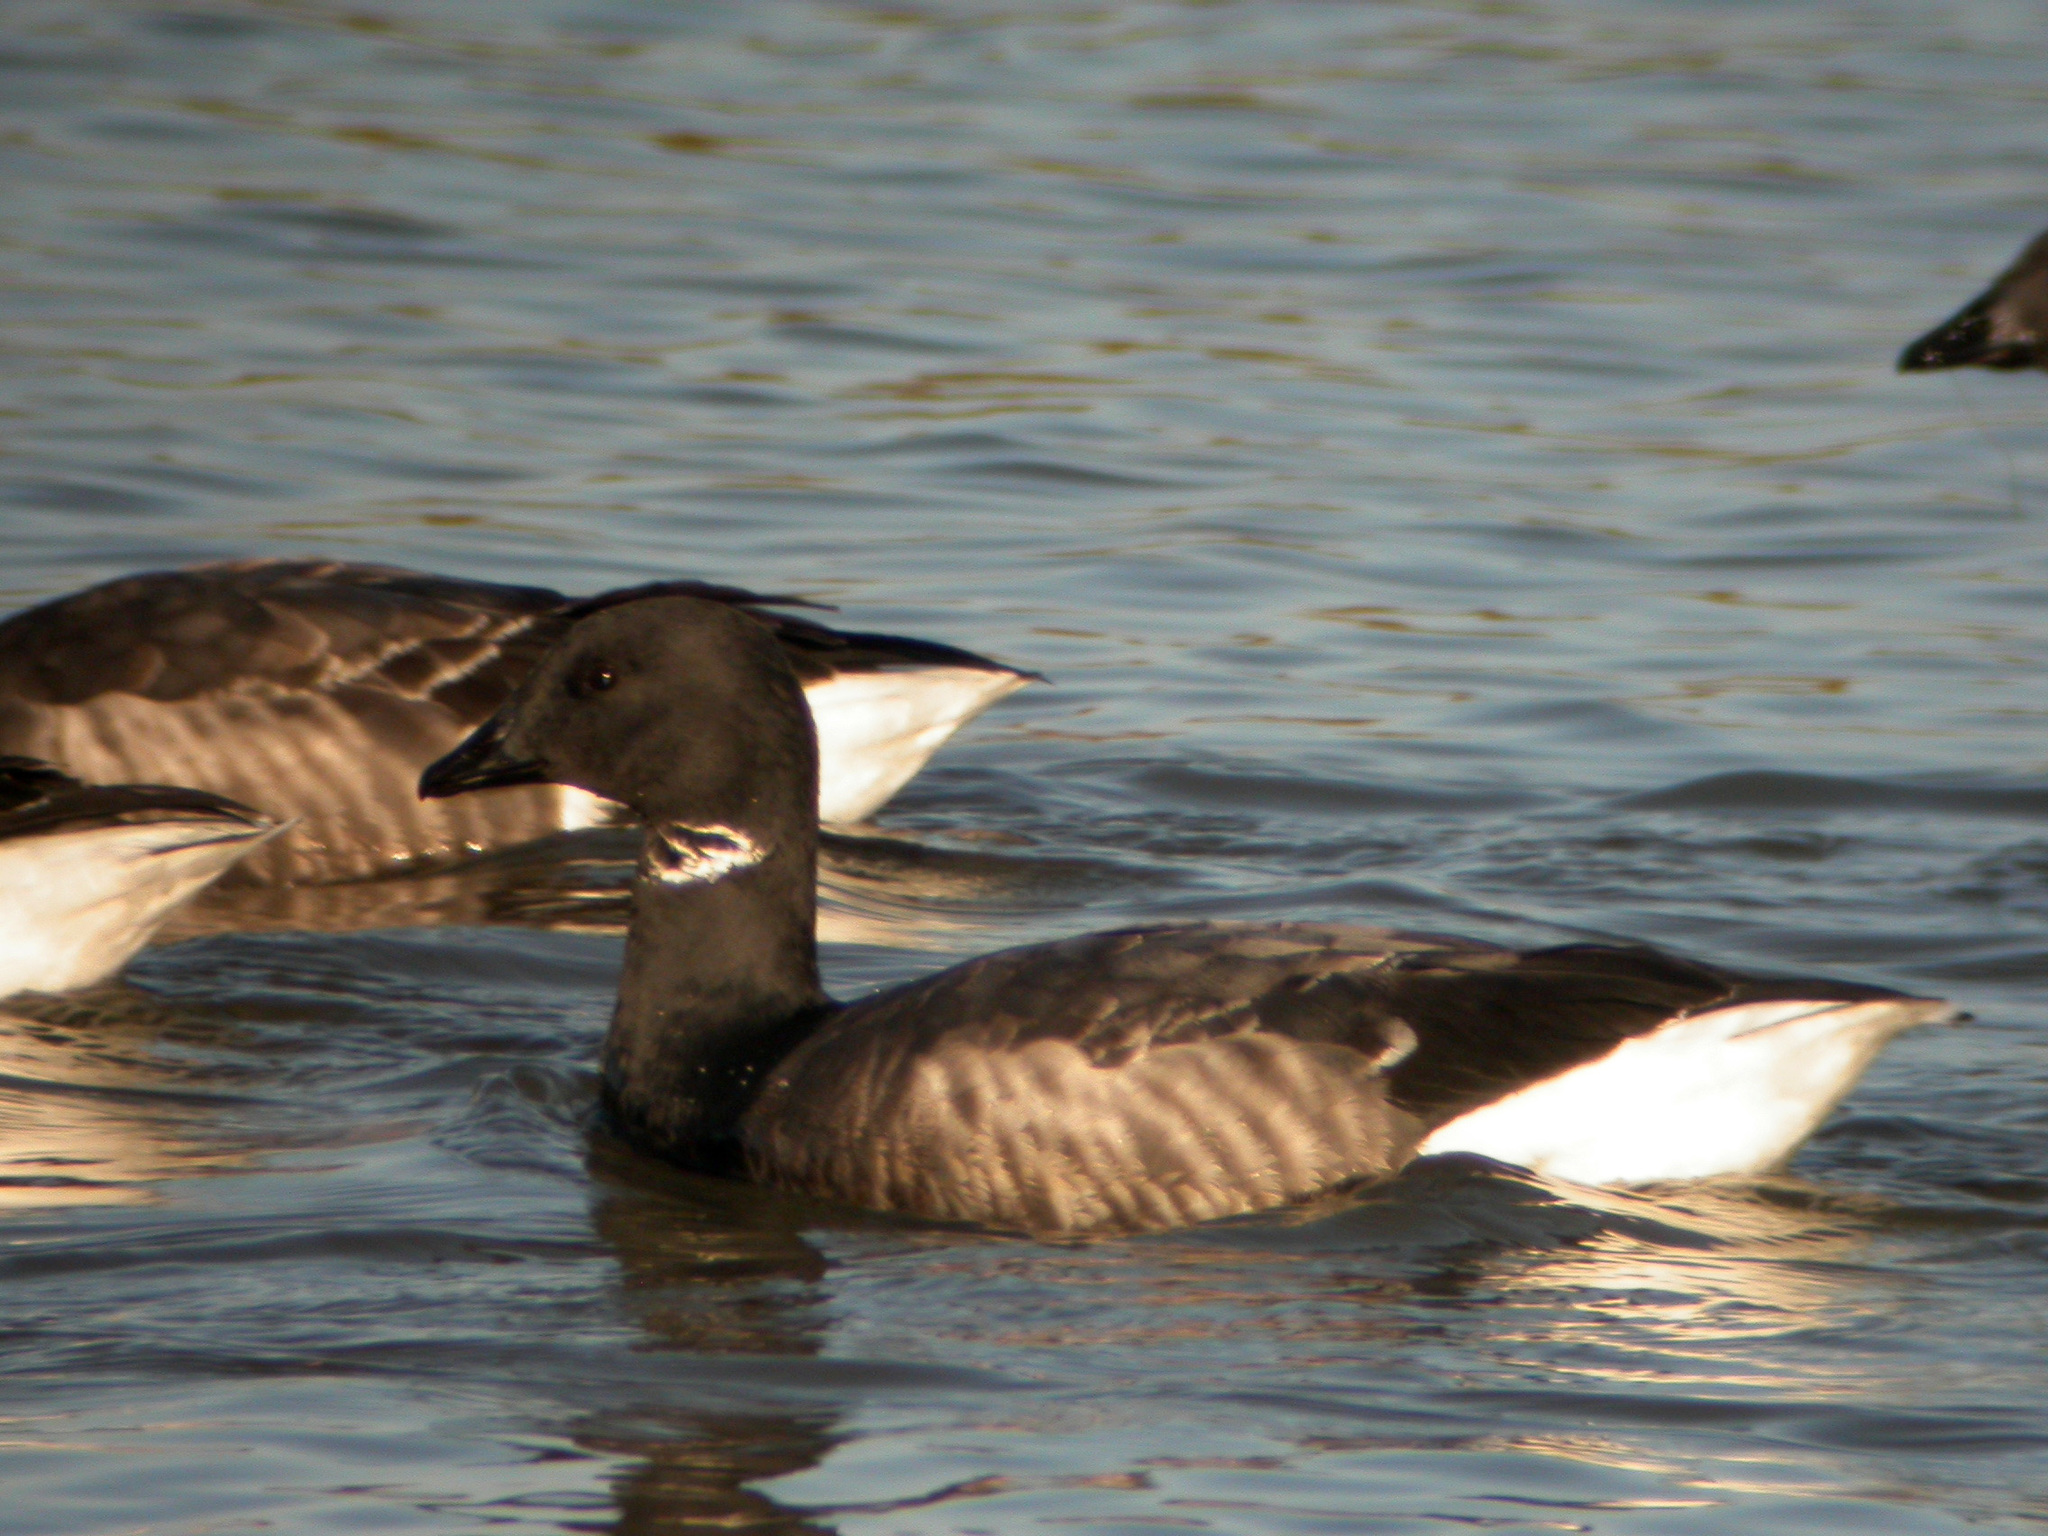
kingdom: Animalia
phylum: Chordata
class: Aves
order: Anseriformes
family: Anatidae
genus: Branta
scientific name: Branta bernicla
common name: Brant goose
